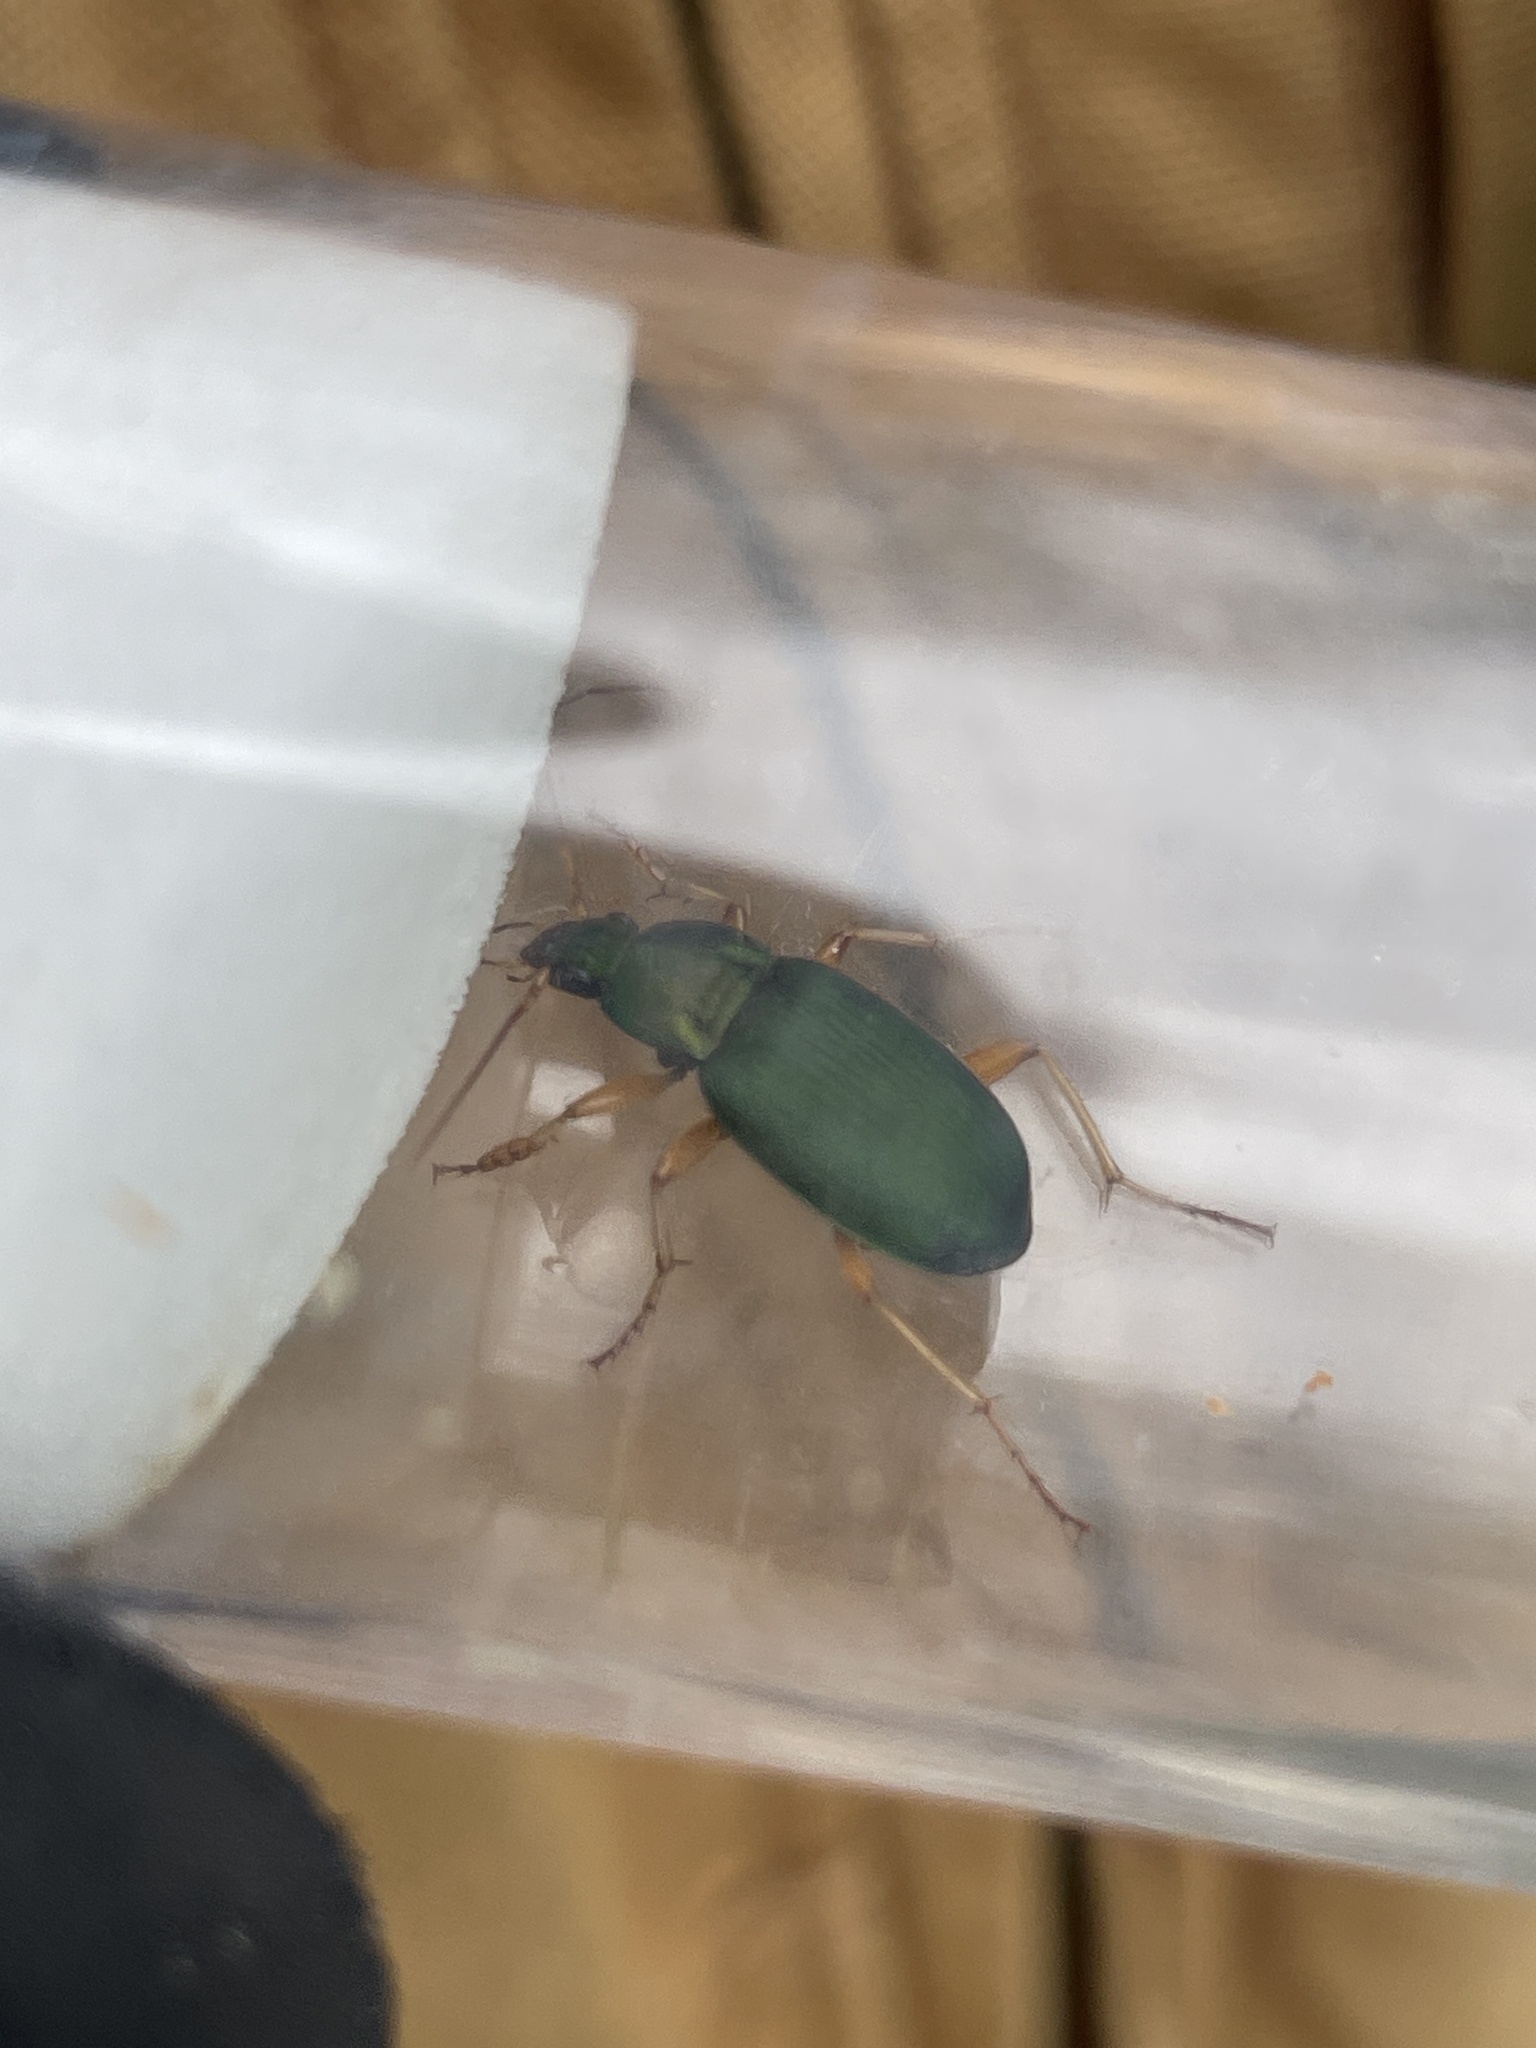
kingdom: Animalia
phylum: Arthropoda
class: Insecta
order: Coleoptera
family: Carabidae
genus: Chlaenius
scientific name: Chlaenius sericeus
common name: Green pubescent ground beetle
